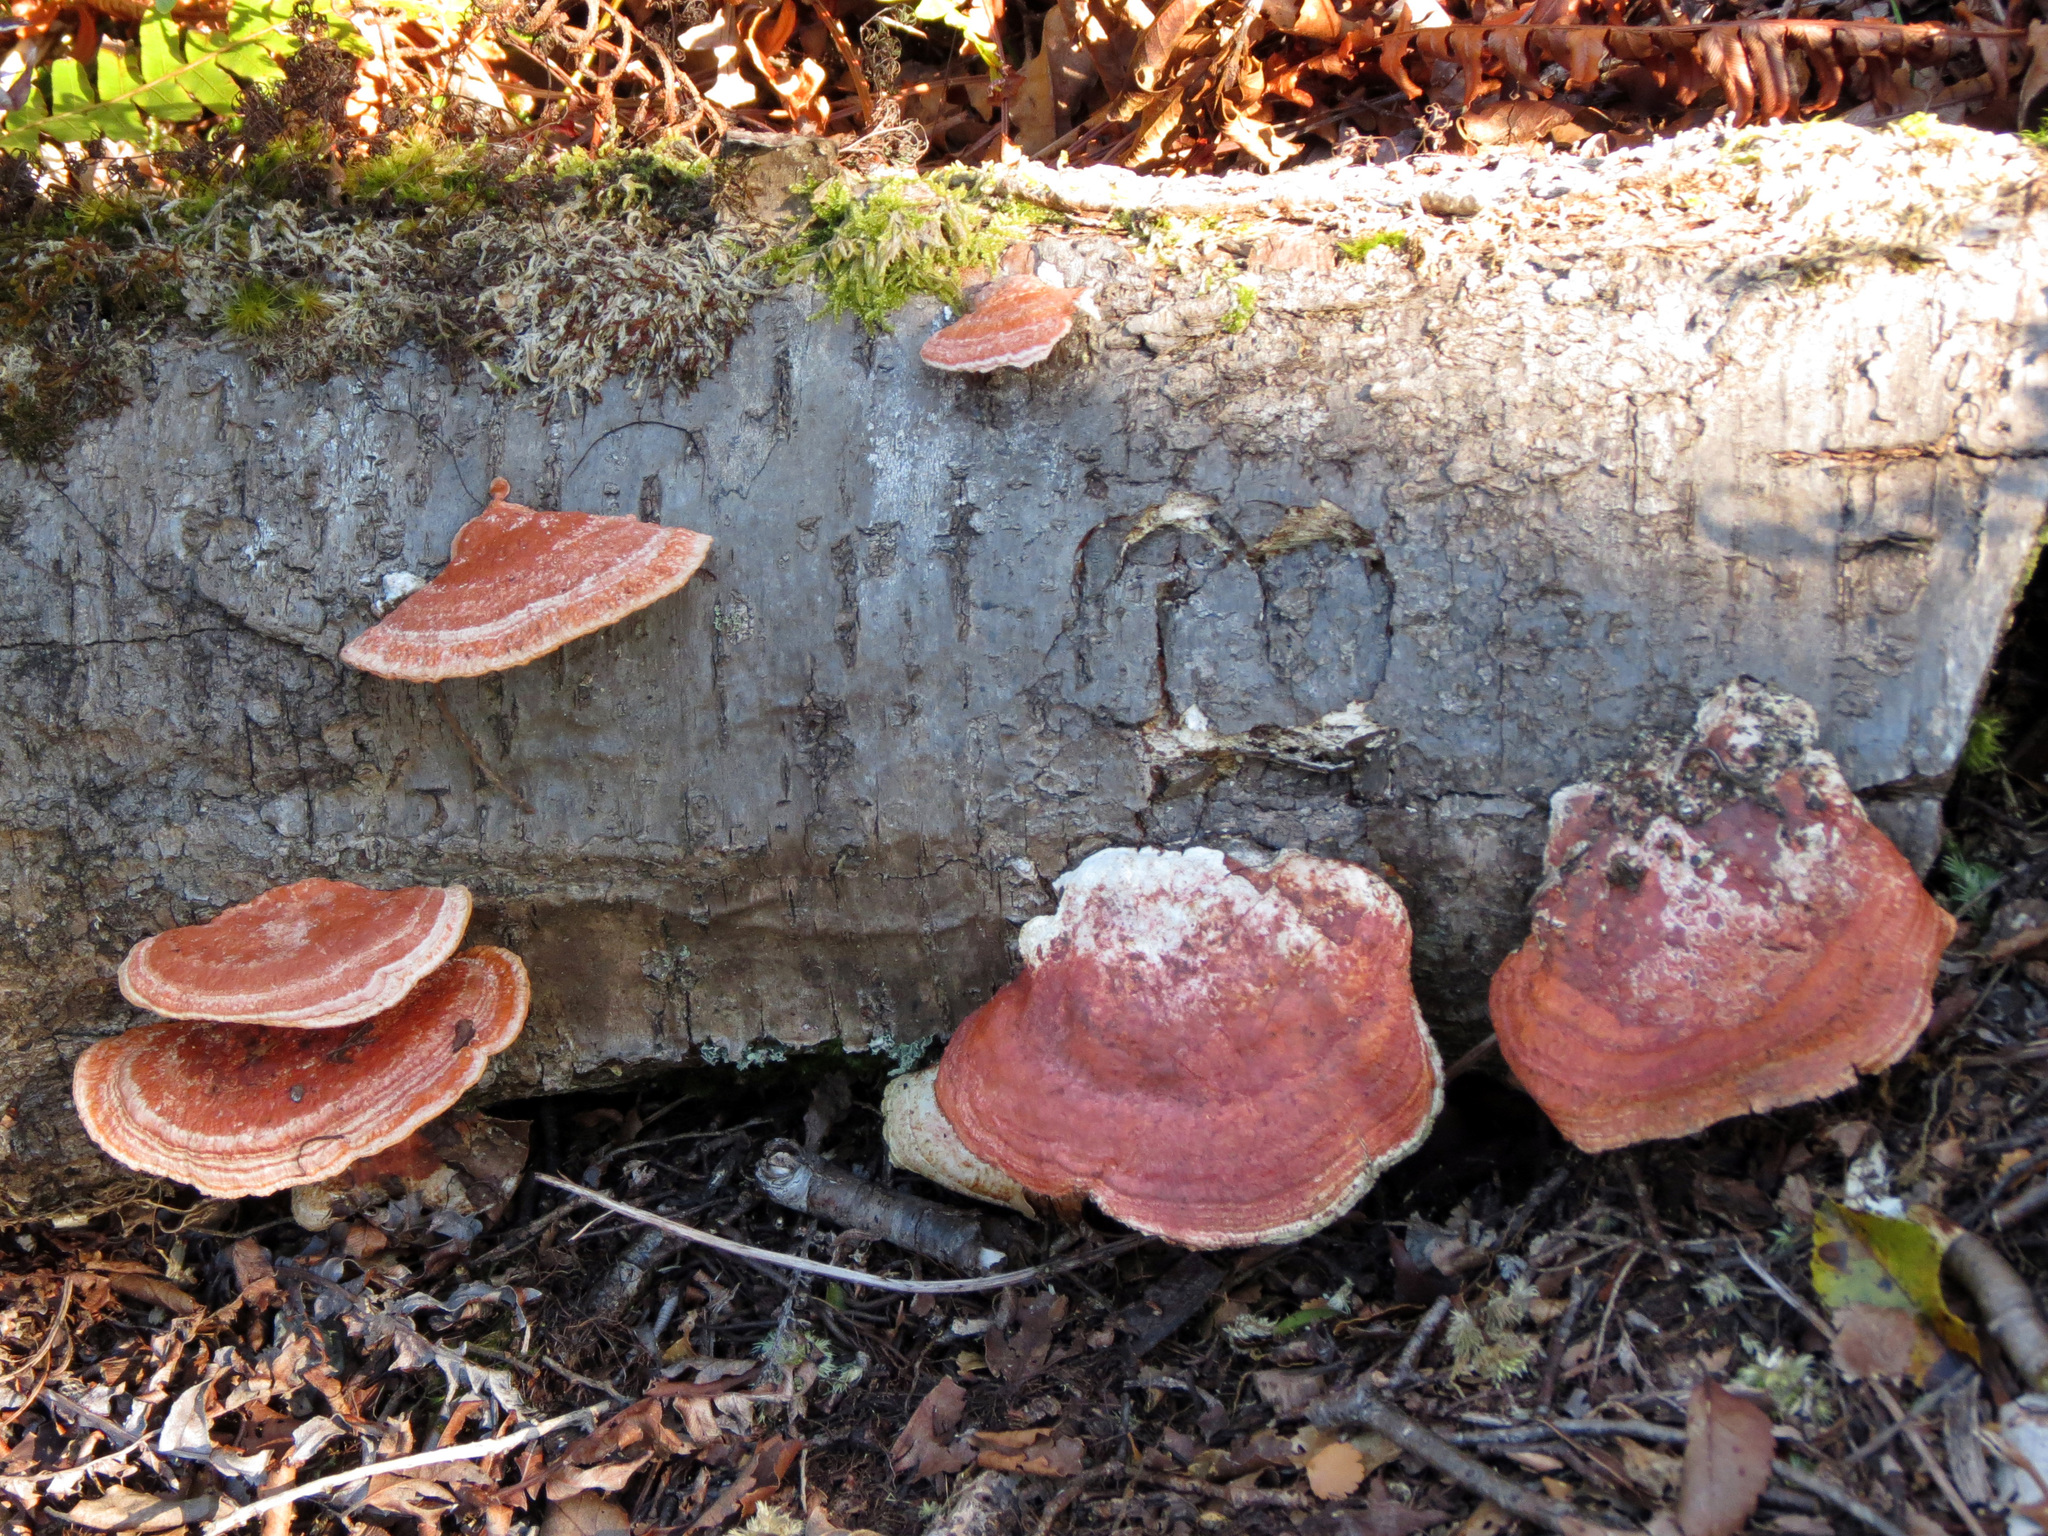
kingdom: Fungi
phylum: Basidiomycota
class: Agaricomycetes
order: Polyporales
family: Polyporaceae
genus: Trametes
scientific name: Trametes coccinea
